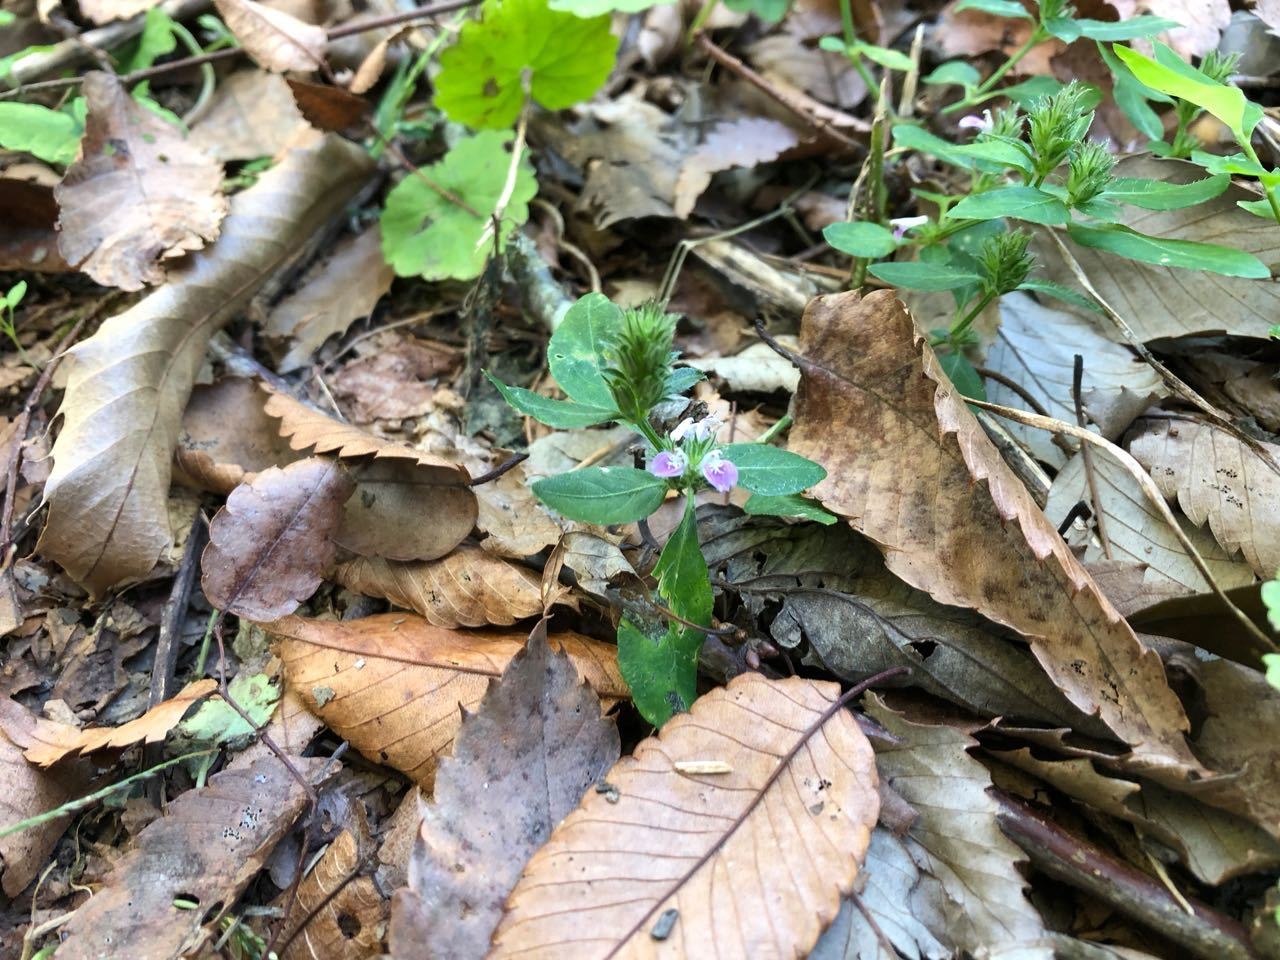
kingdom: Plantae
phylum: Tracheophyta
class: Magnoliopsida
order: Lamiales
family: Acanthaceae
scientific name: Acanthaceae
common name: Acanthaceae
